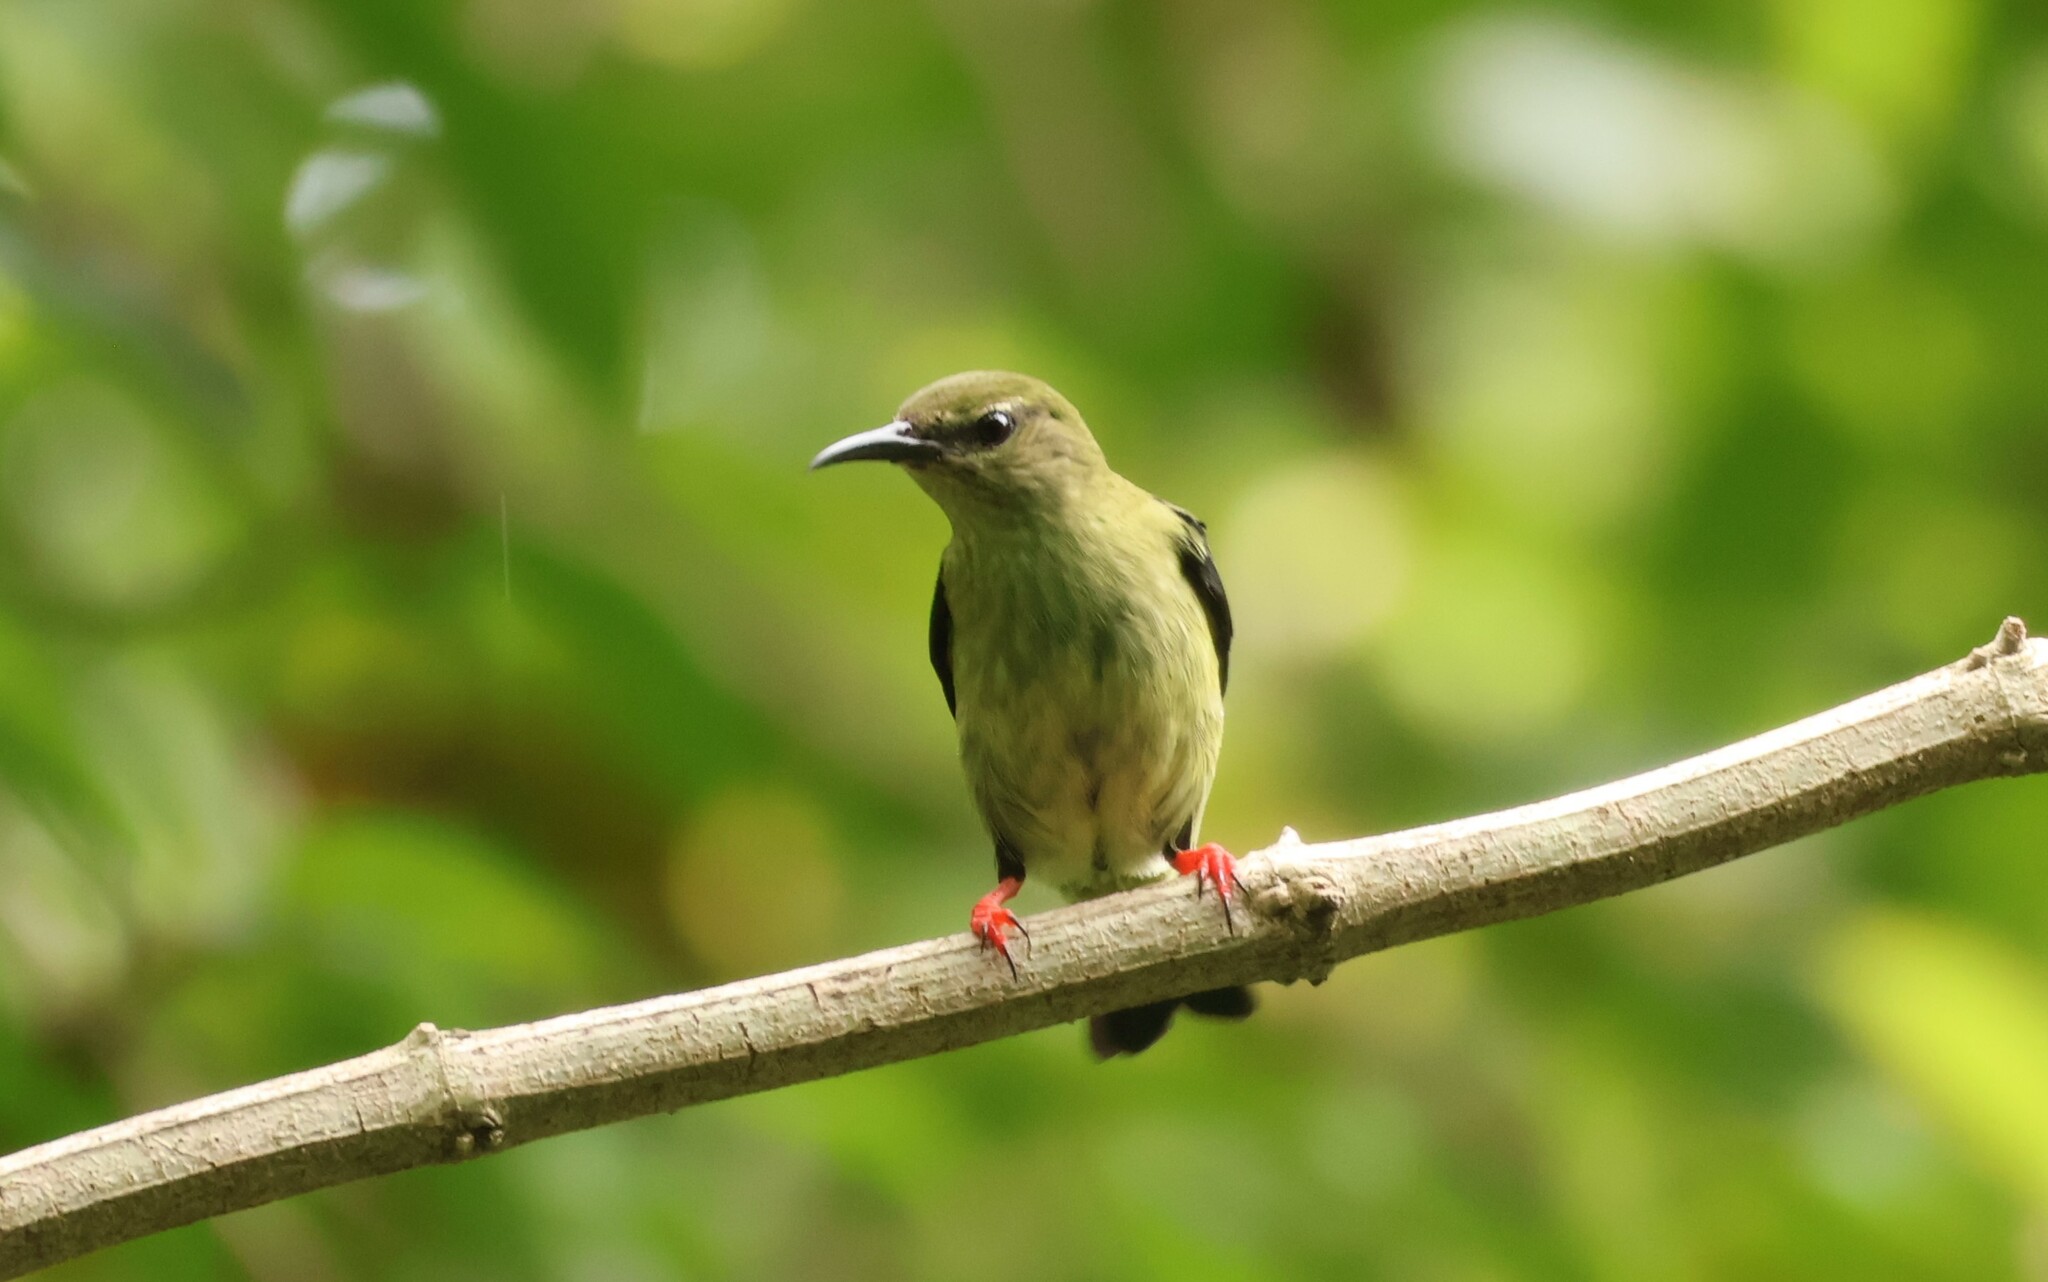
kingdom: Animalia
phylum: Chordata
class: Aves
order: Passeriformes
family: Thraupidae
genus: Cyanerpes
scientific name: Cyanerpes cyaneus
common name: Red-legged honeycreeper
